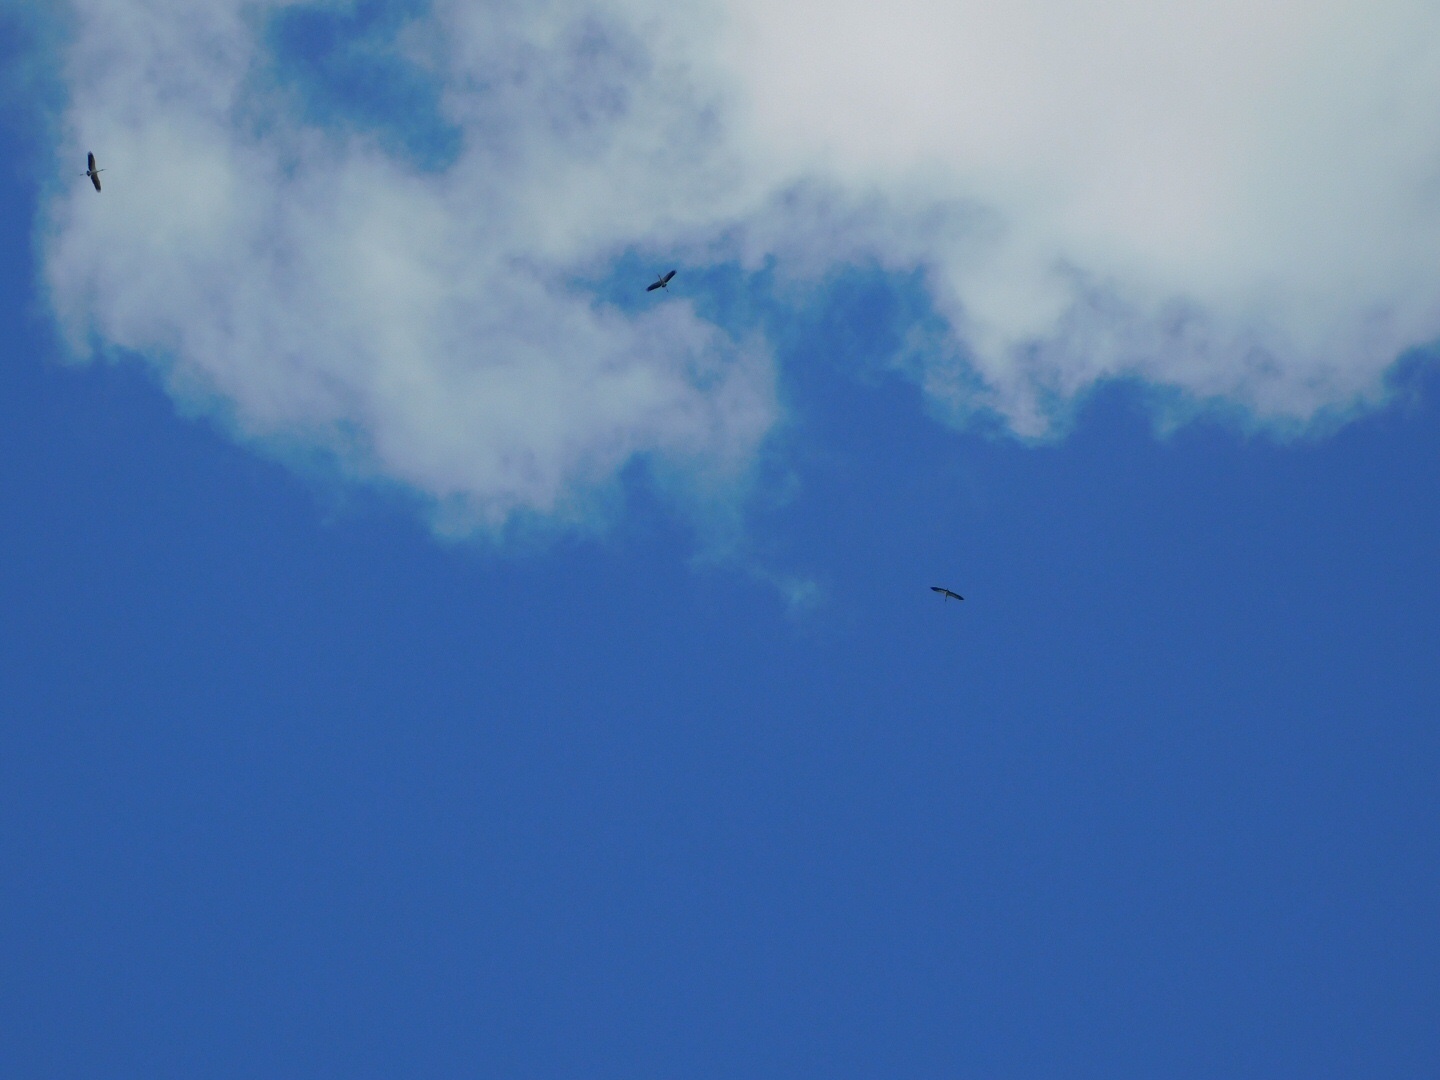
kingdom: Animalia
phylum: Chordata
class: Aves
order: Ciconiiformes
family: Ciconiidae
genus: Mycteria
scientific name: Mycteria americana
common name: Wood stork
